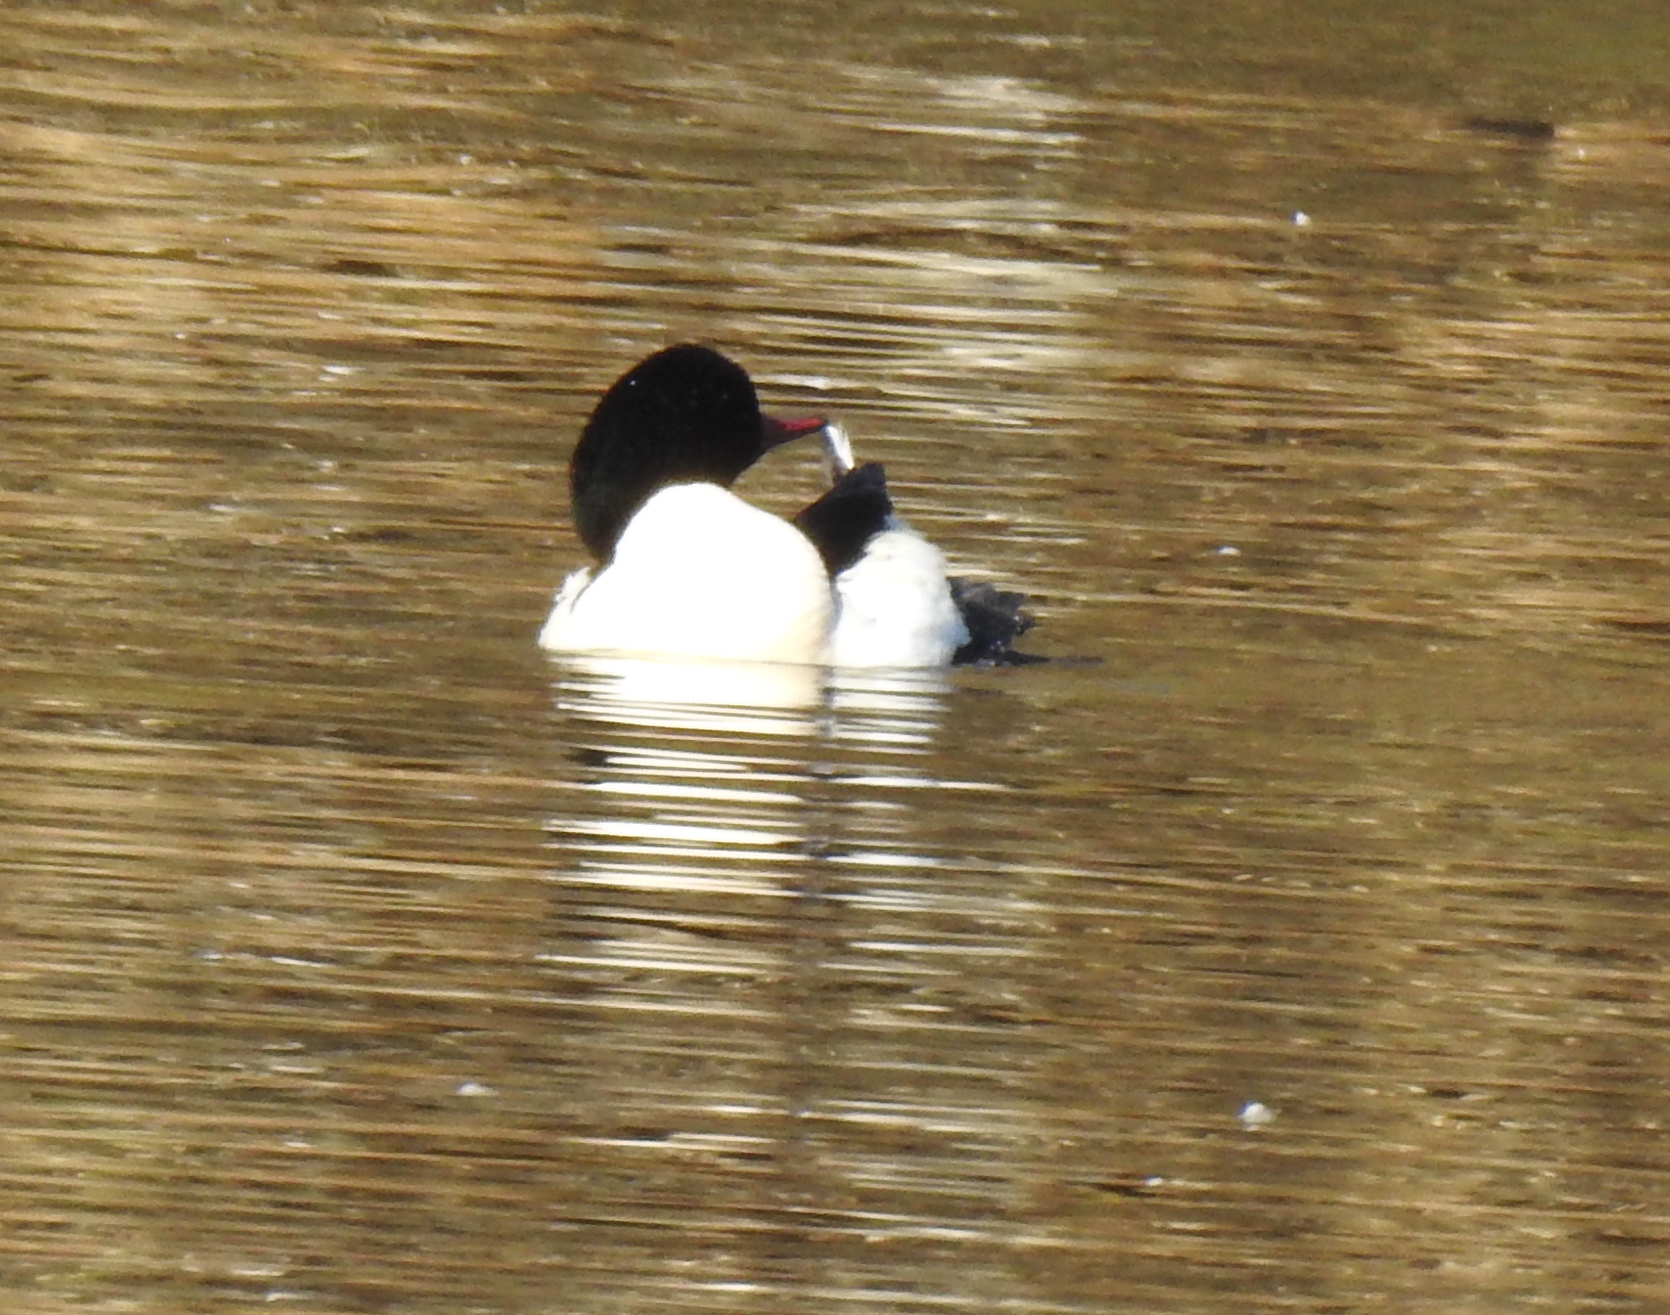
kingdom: Animalia
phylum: Chordata
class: Aves
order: Anseriformes
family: Anatidae
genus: Mergus
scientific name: Mergus merganser
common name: Common merganser
